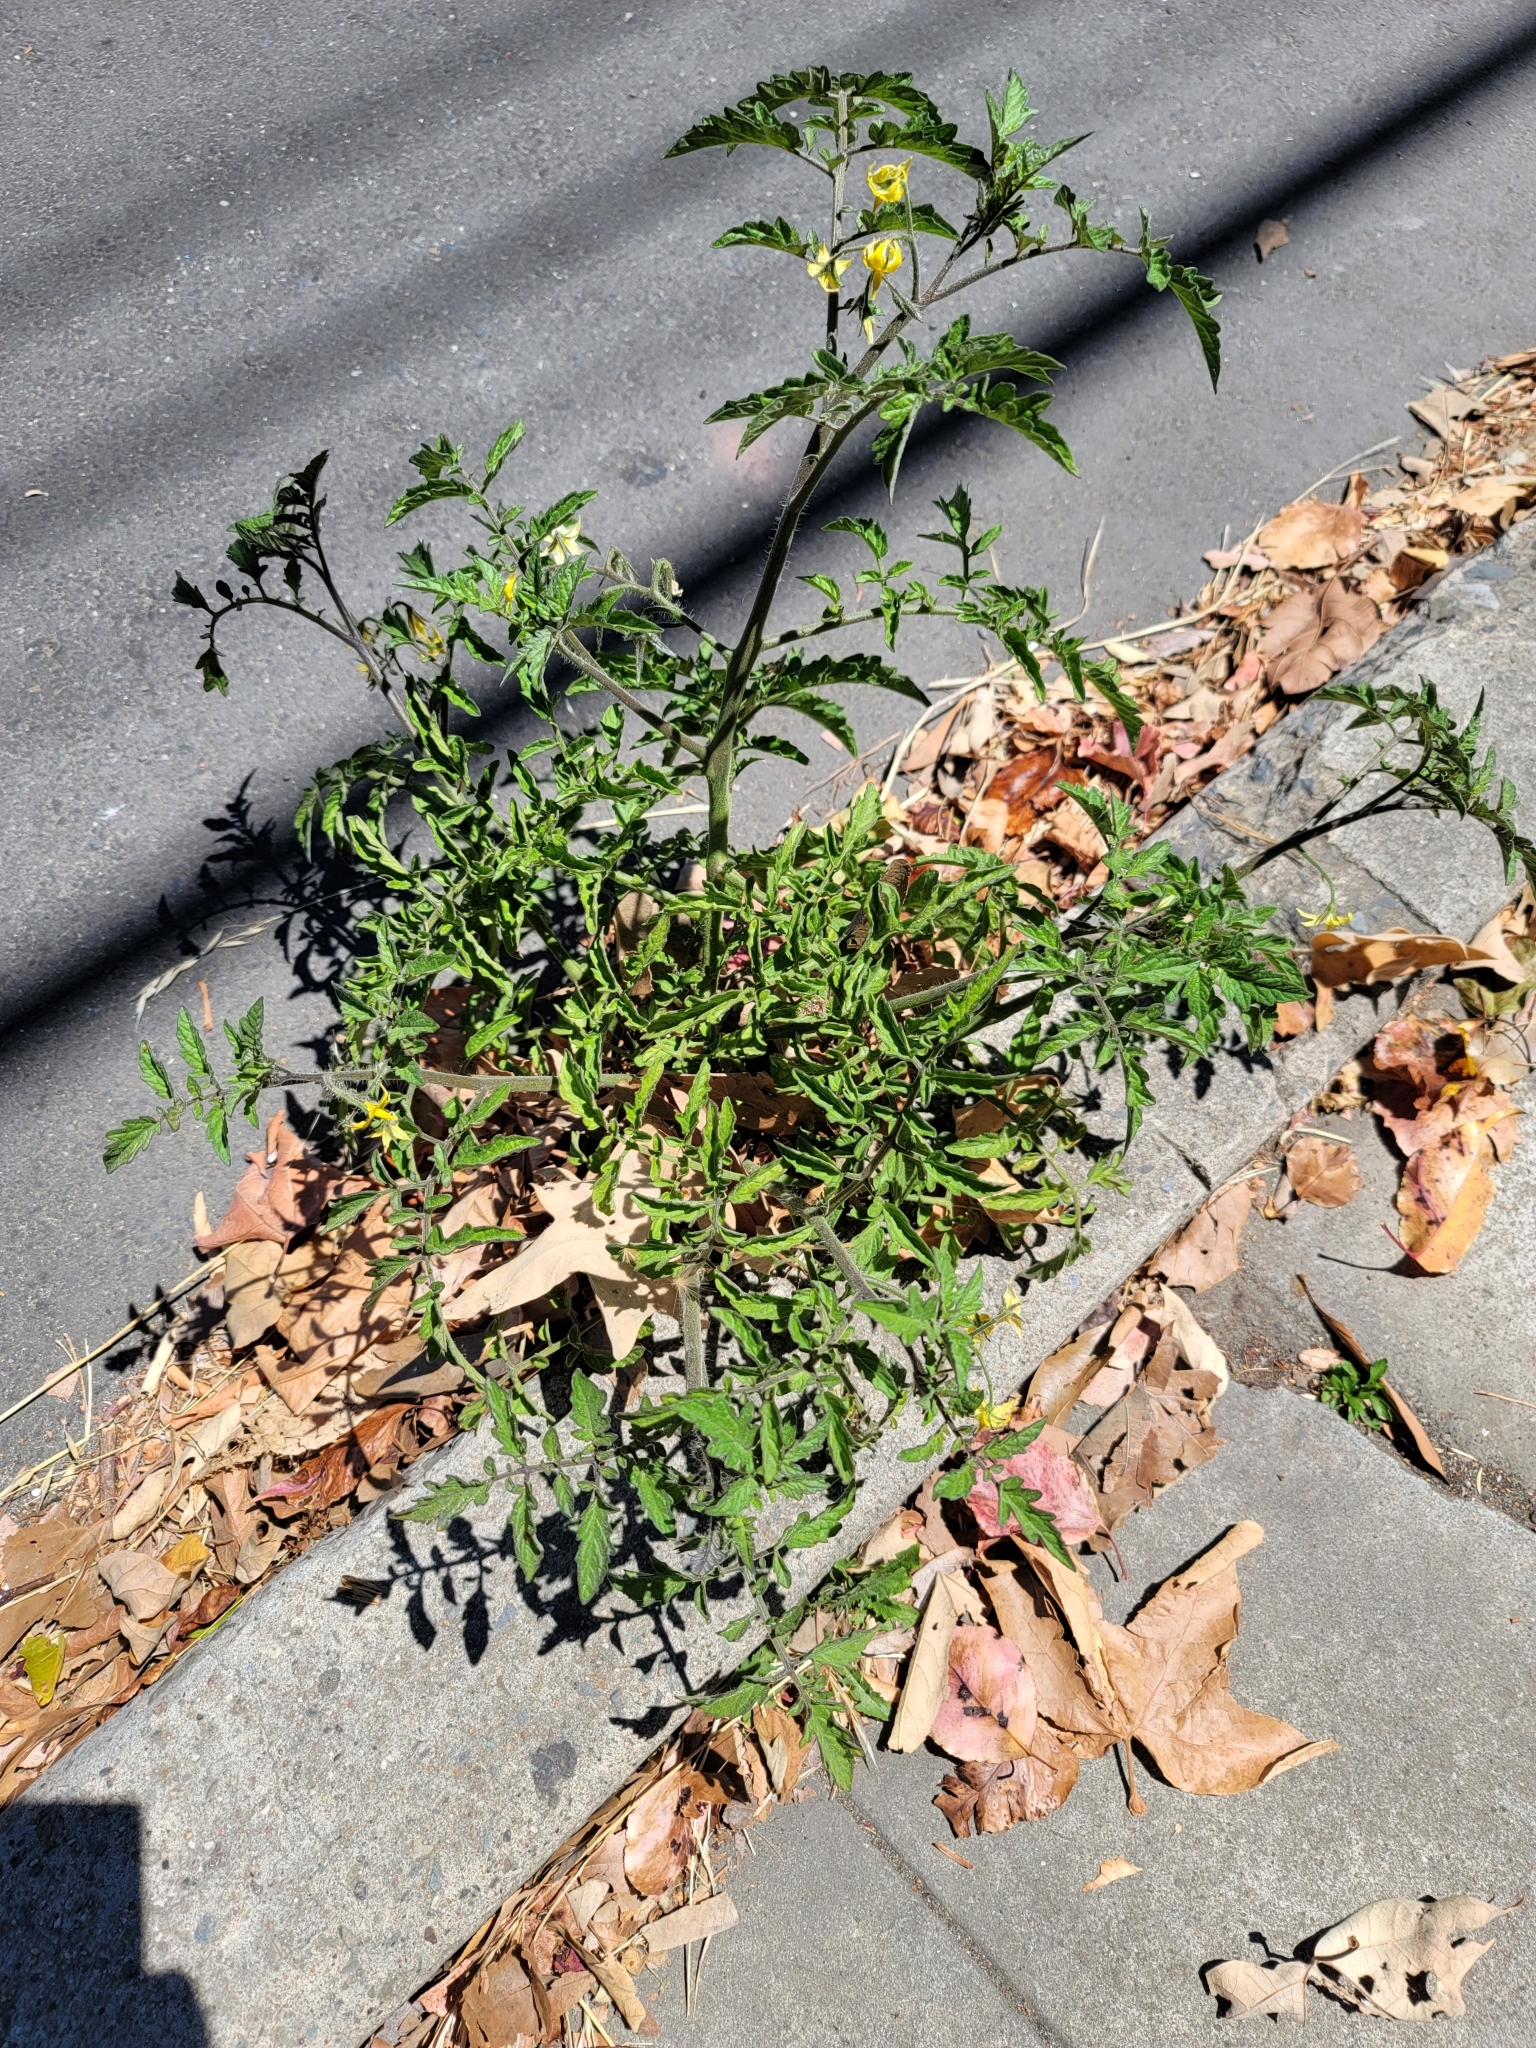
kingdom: Plantae
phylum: Tracheophyta
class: Magnoliopsida
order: Solanales
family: Solanaceae
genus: Solanum
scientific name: Solanum lycopersicum
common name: Garden tomato
